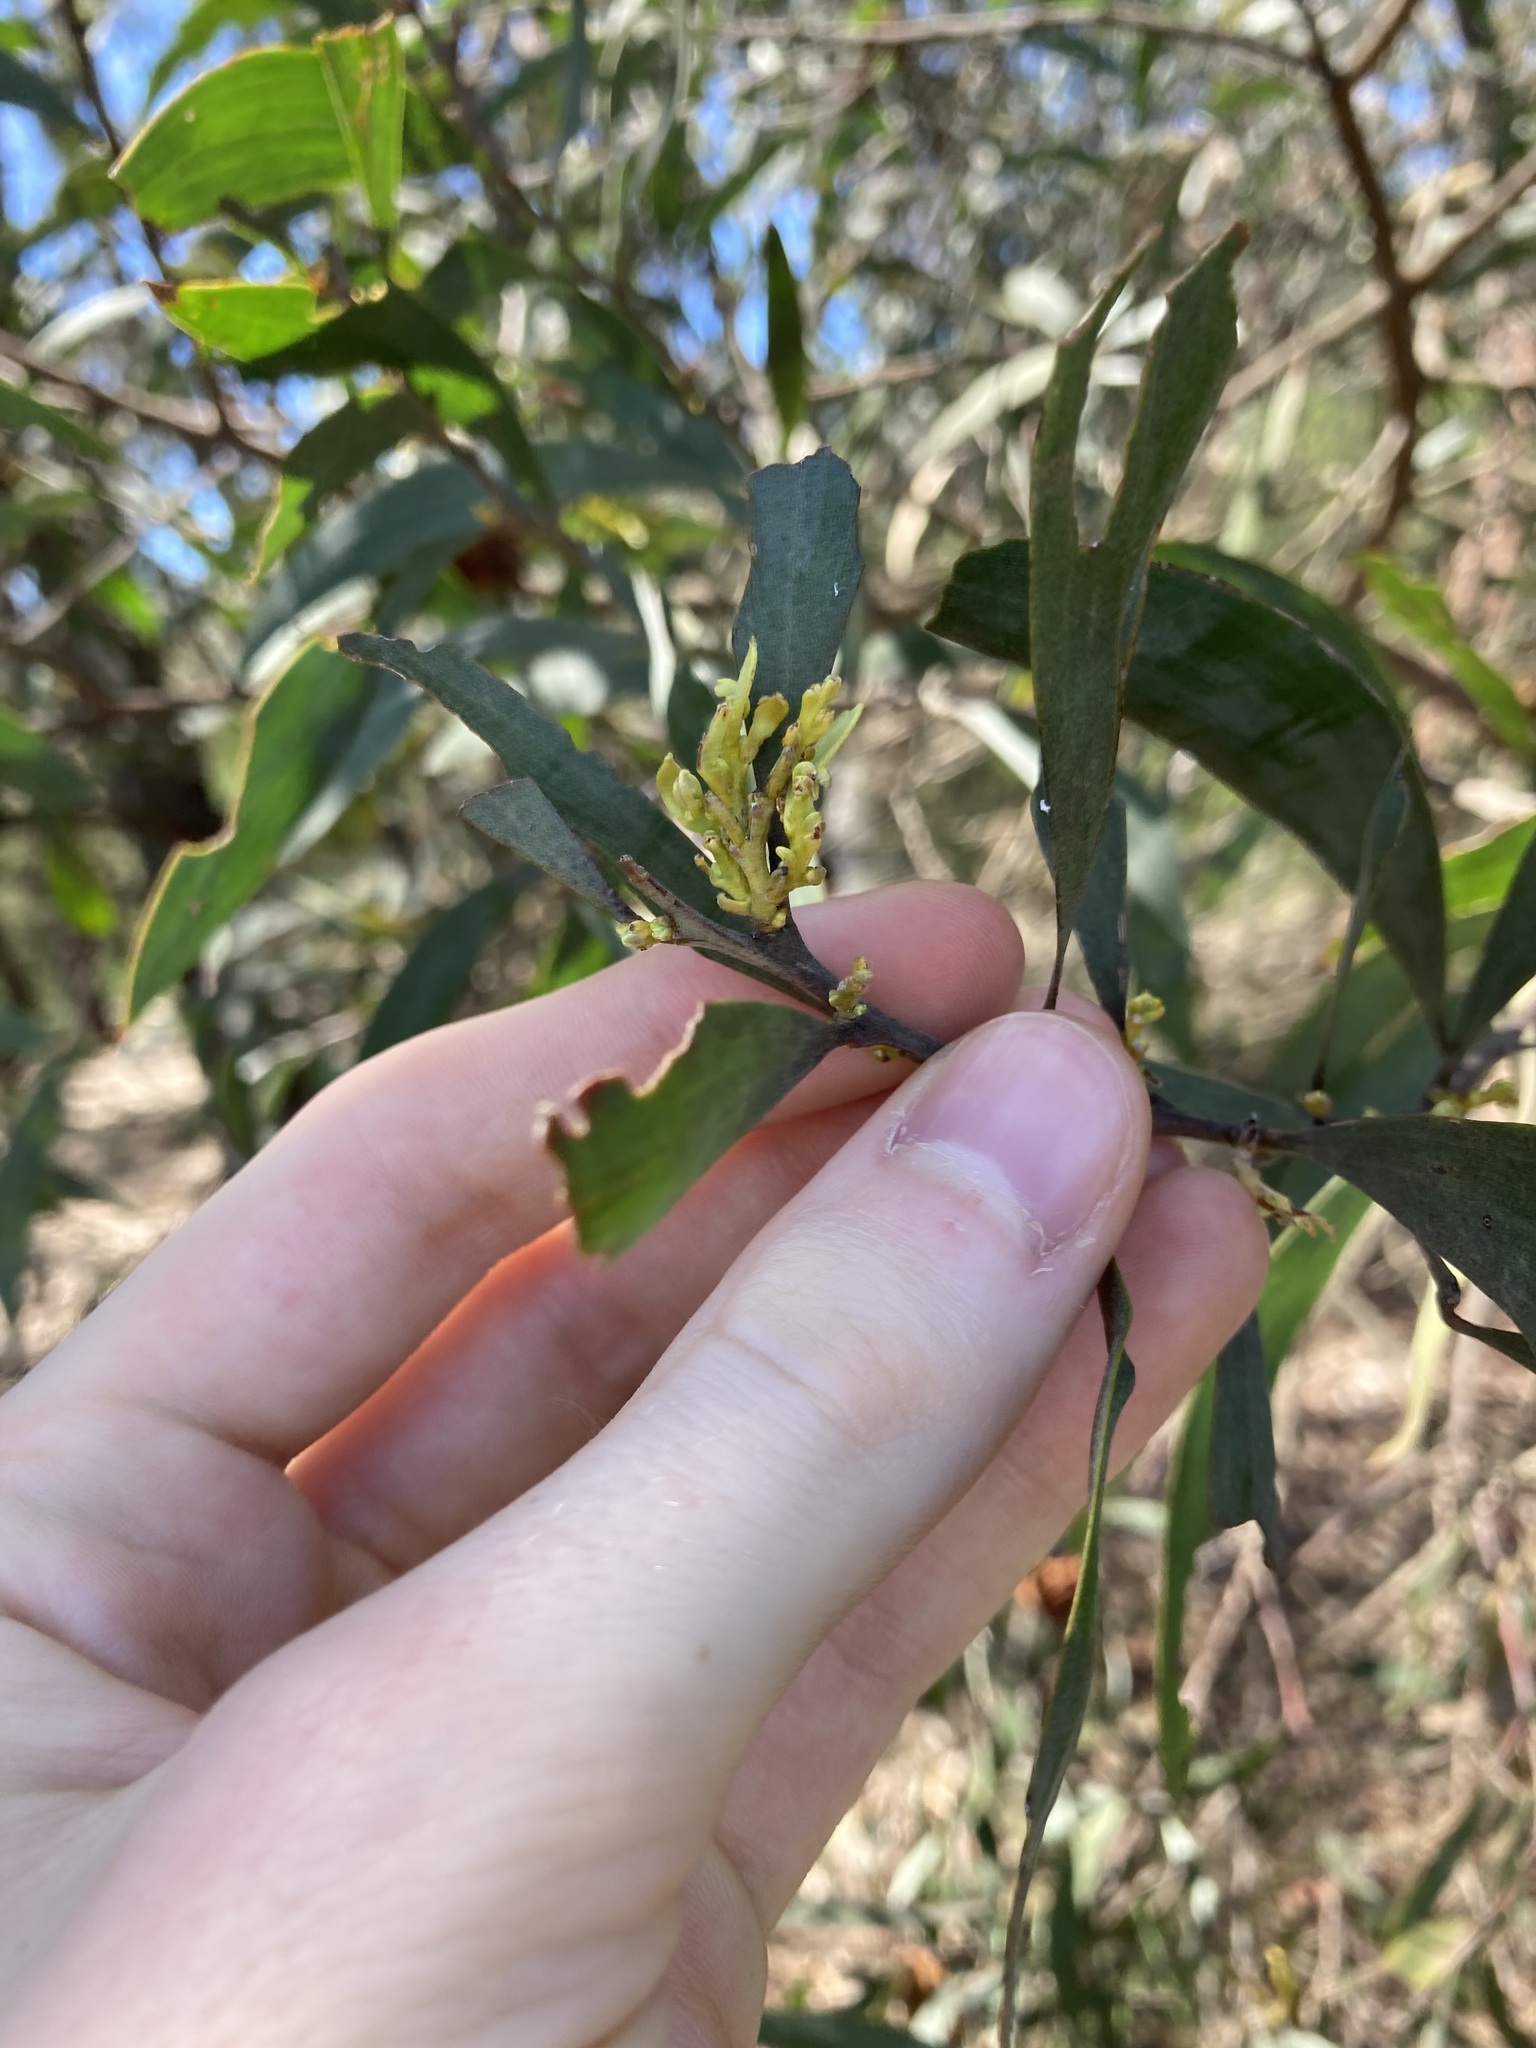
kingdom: Plantae
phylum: Tracheophyta
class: Magnoliopsida
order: Fabales
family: Fabaceae
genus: Acacia
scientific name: Acacia binervia
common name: Coast myall
